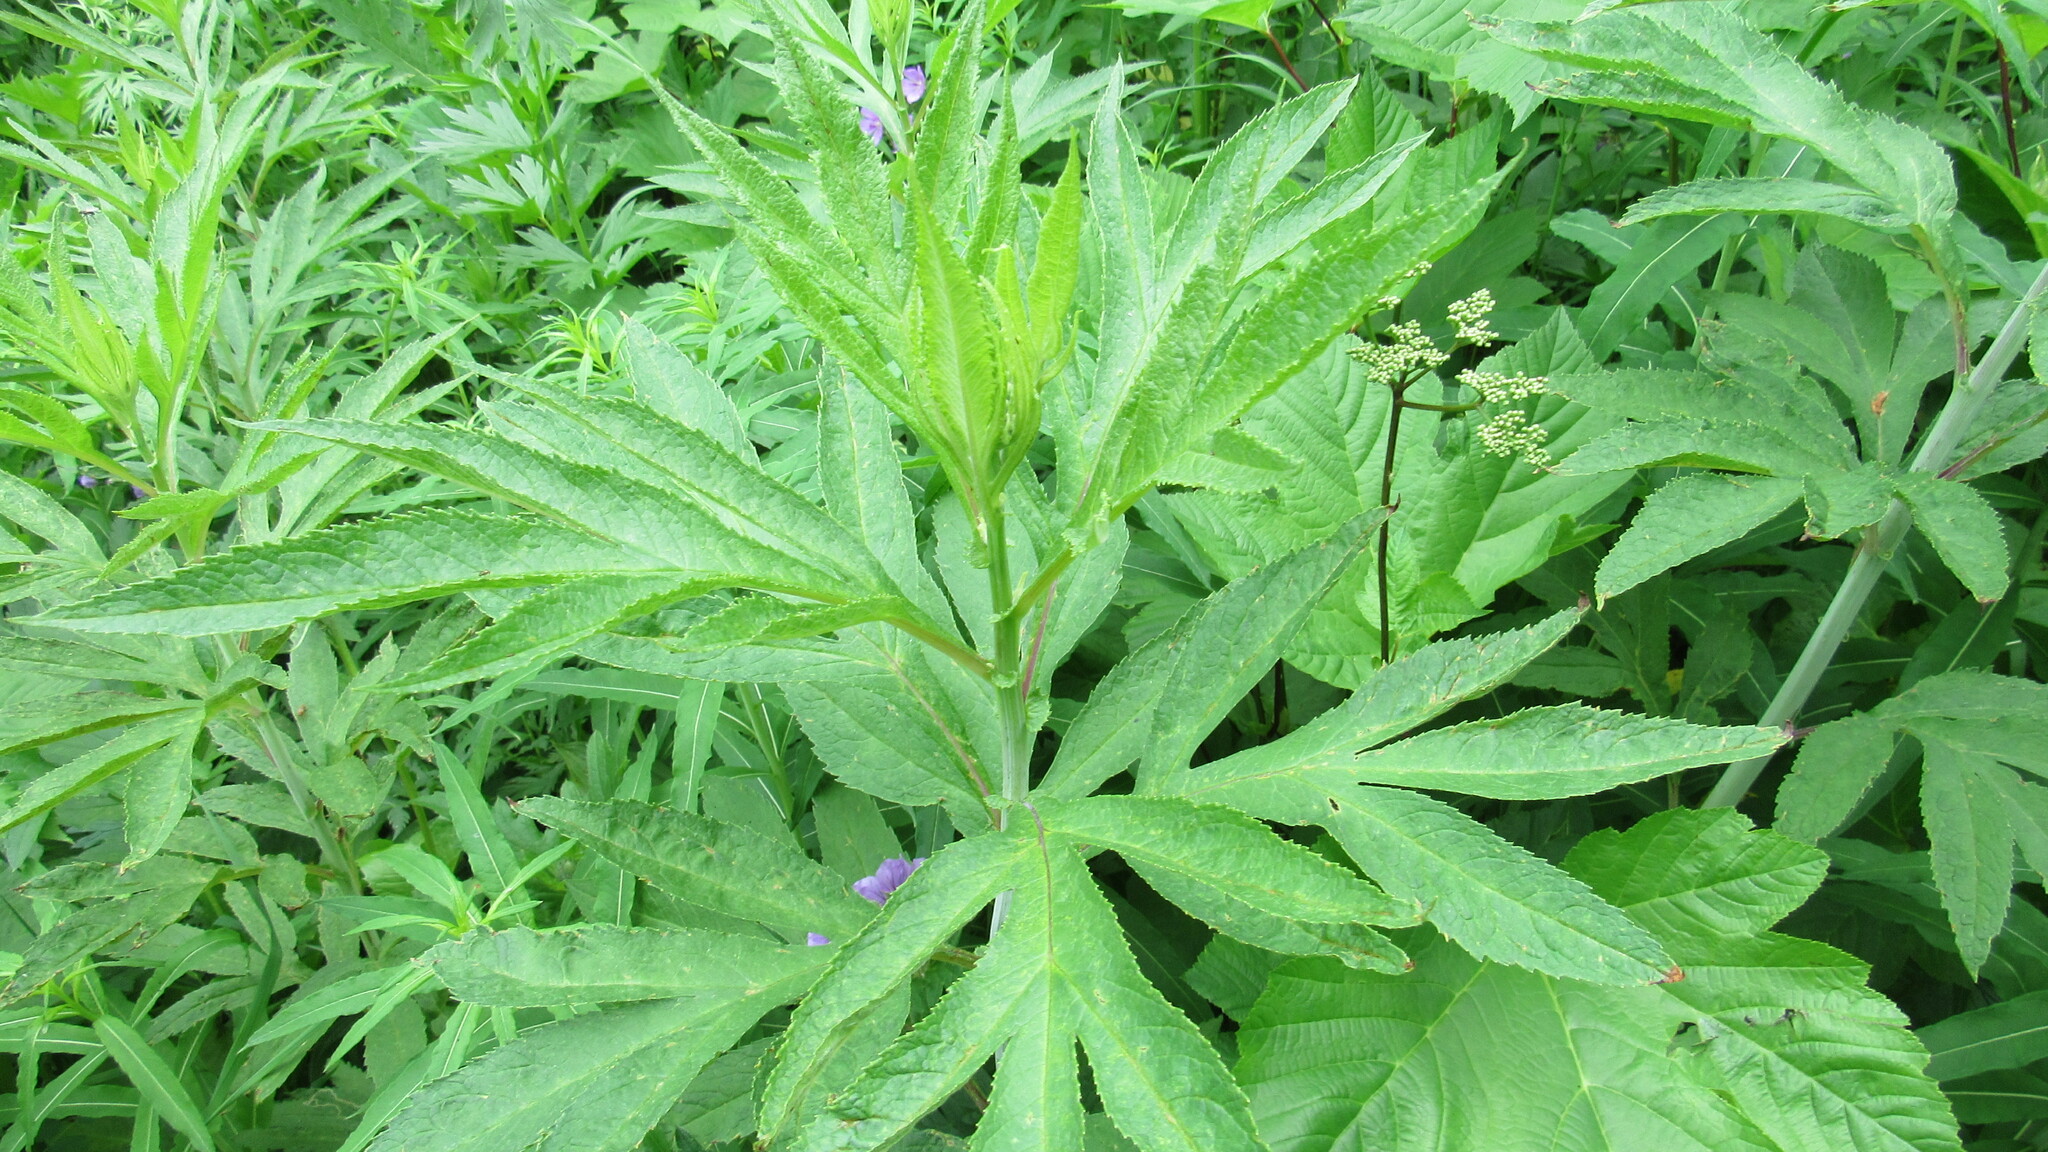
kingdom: Plantae
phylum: Tracheophyta
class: Magnoliopsida
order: Asterales
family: Asteraceae
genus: Jacobaea
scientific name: Jacobaea cannabifolia
